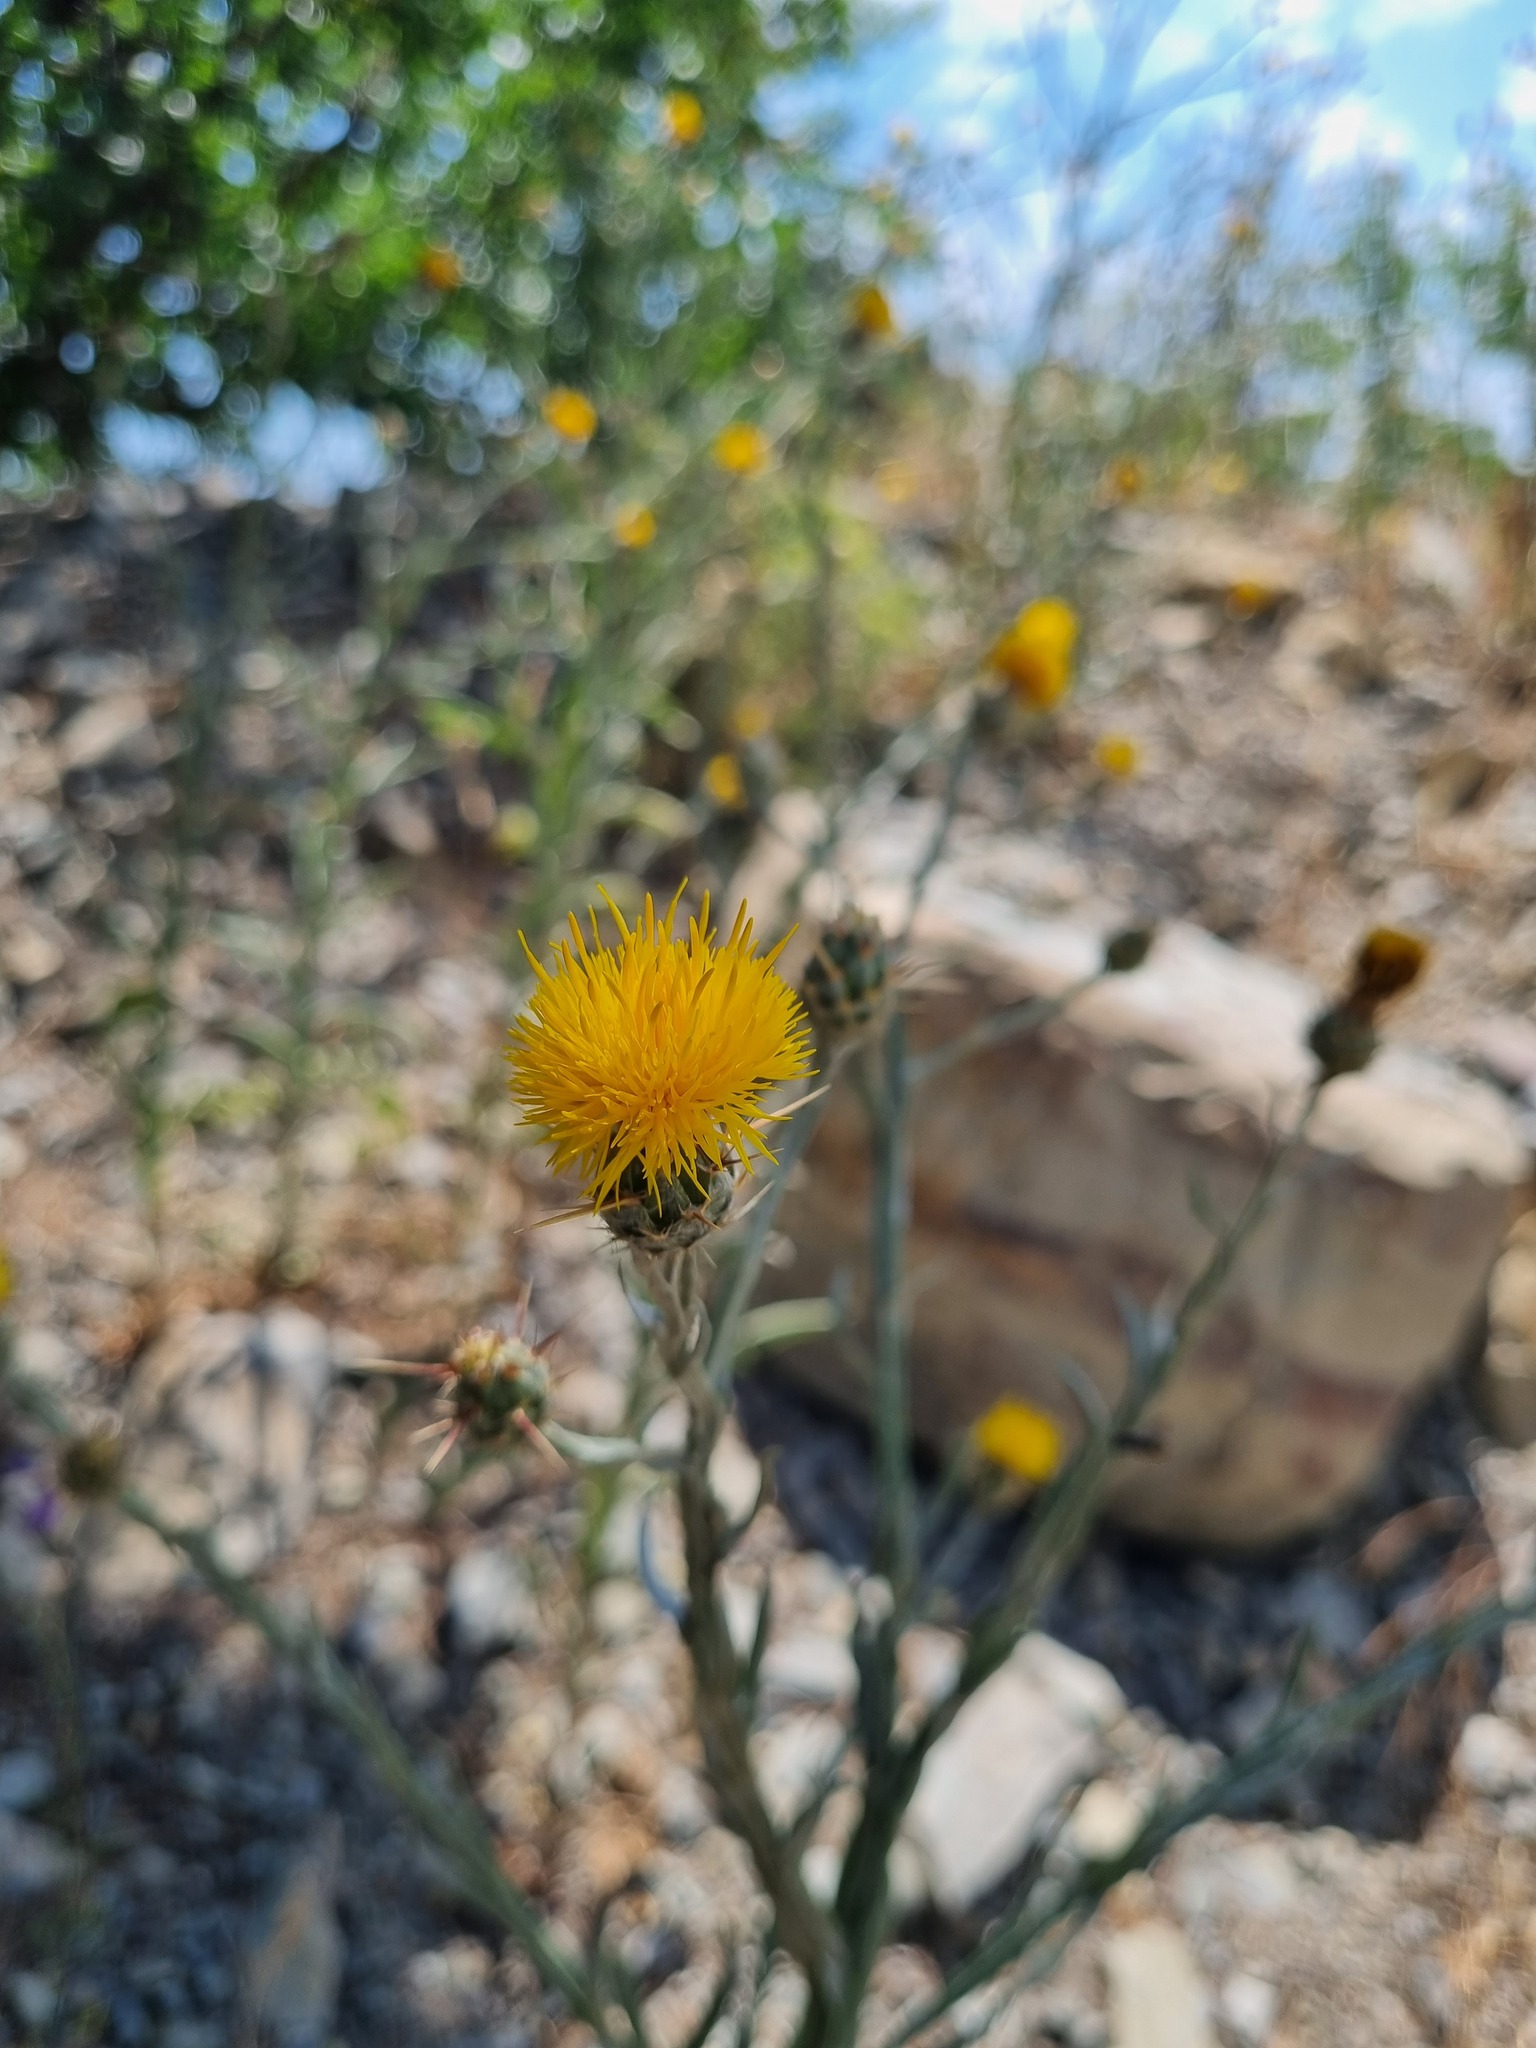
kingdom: Plantae
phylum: Tracheophyta
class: Magnoliopsida
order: Asterales
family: Asteraceae
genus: Centaurea
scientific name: Centaurea solstitialis
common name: Yellow star-thistle
